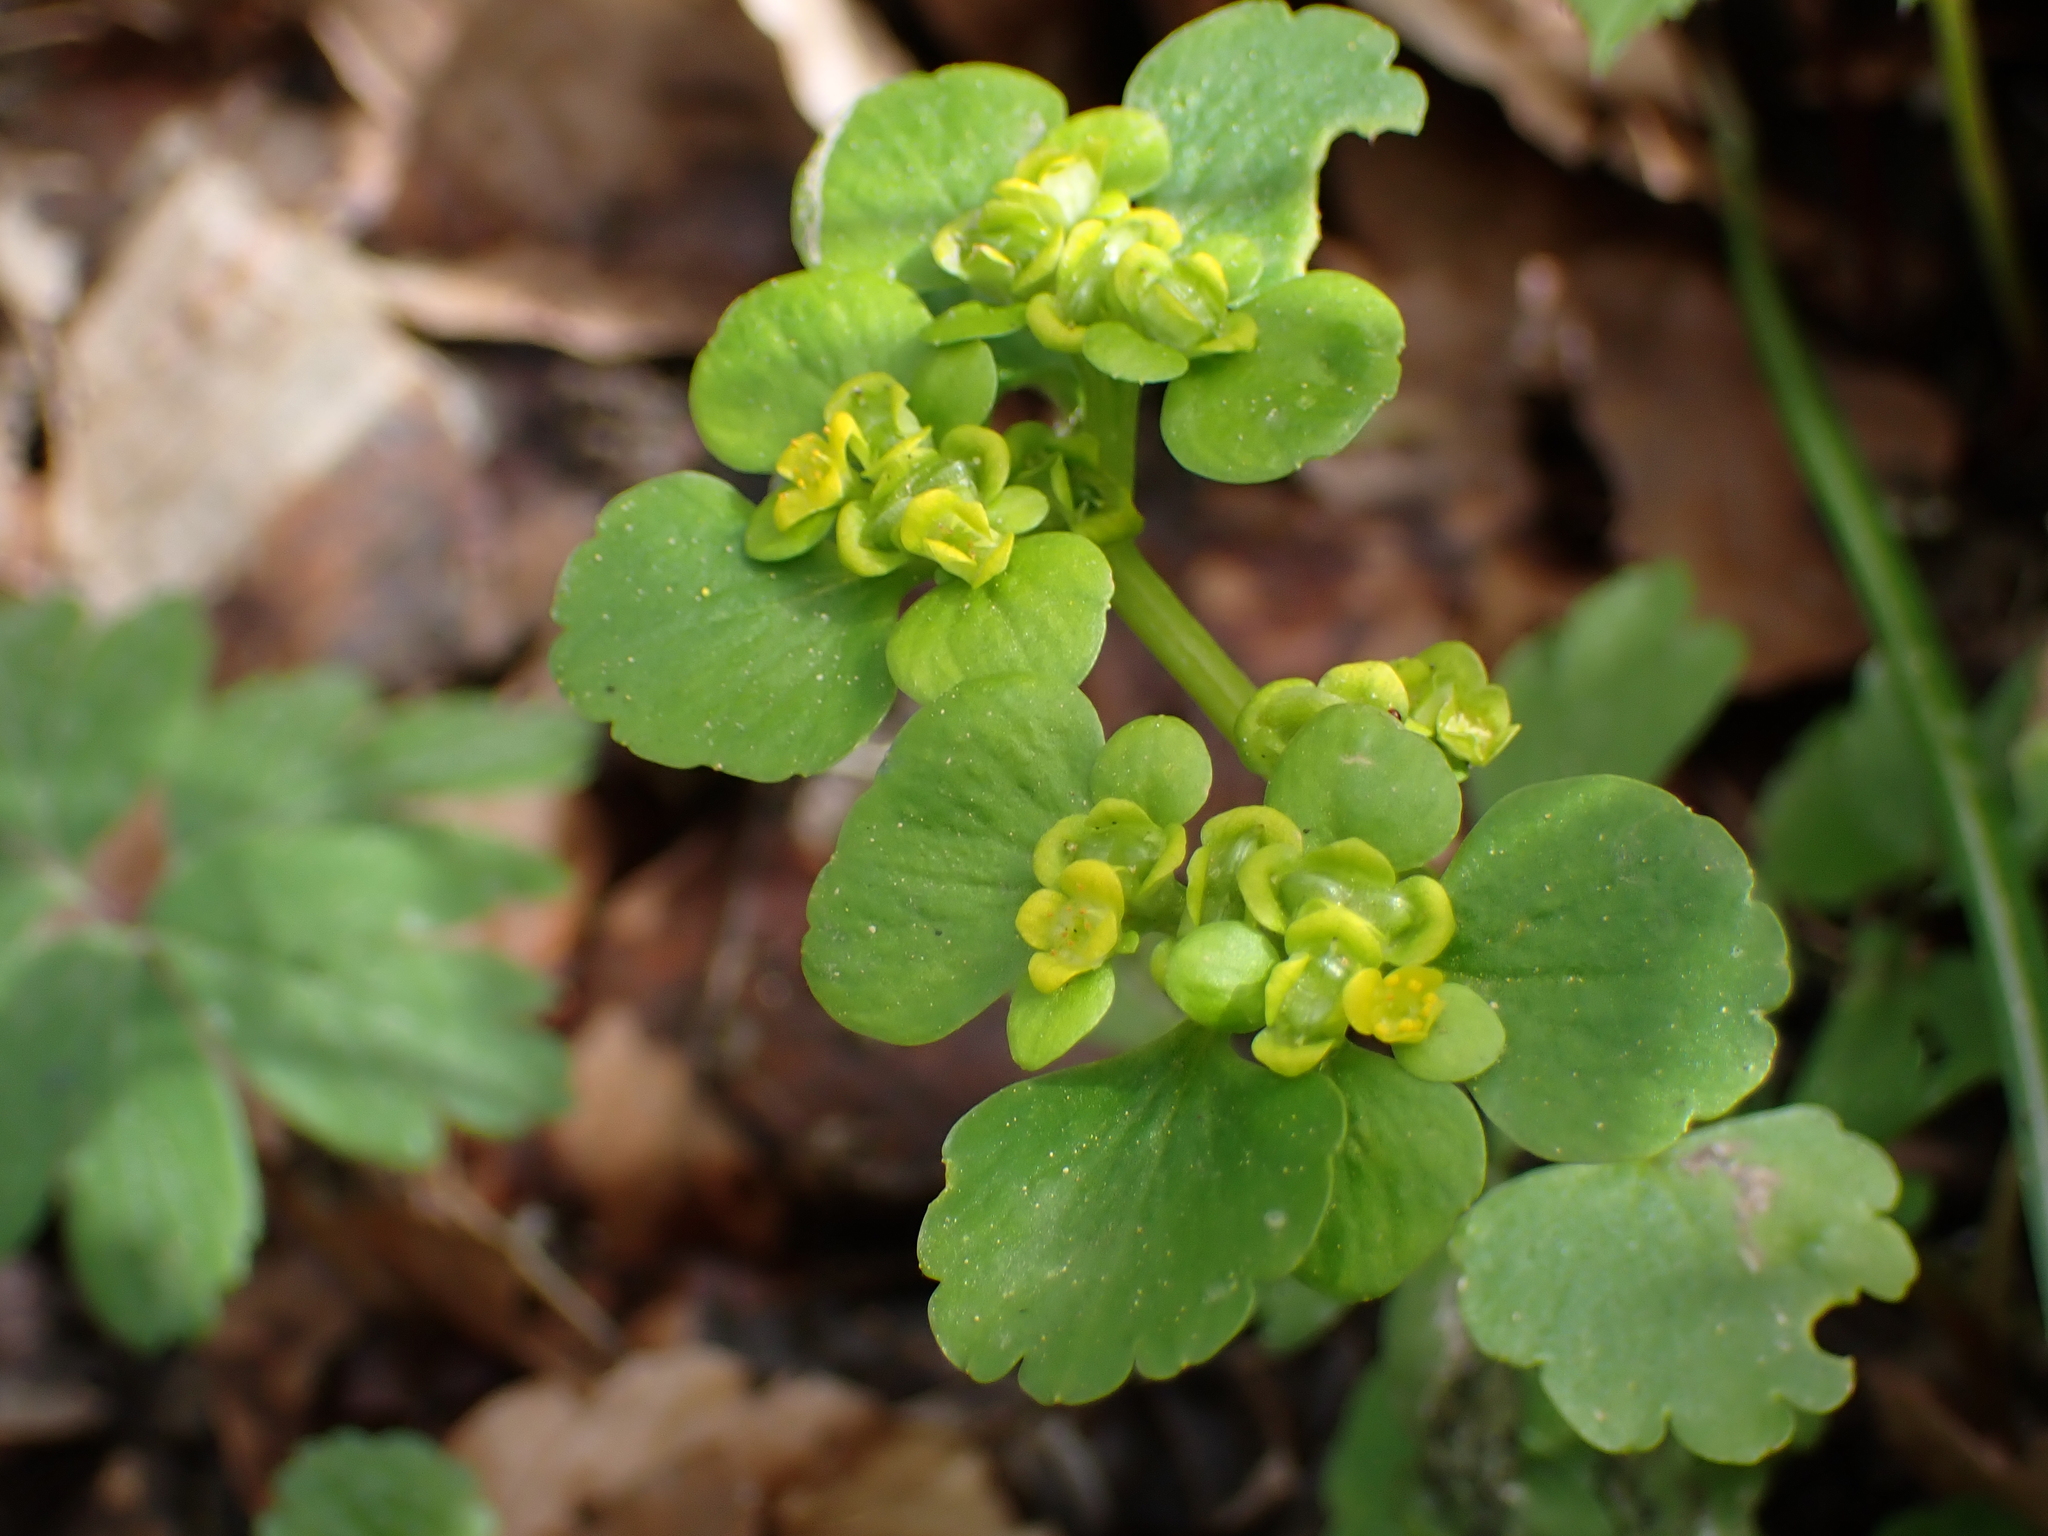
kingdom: Plantae
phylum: Tracheophyta
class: Magnoliopsida
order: Saxifragales
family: Saxifragaceae
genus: Chrysosplenium
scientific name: Chrysosplenium alternifolium
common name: Alternate-leaved golden-saxifrage
